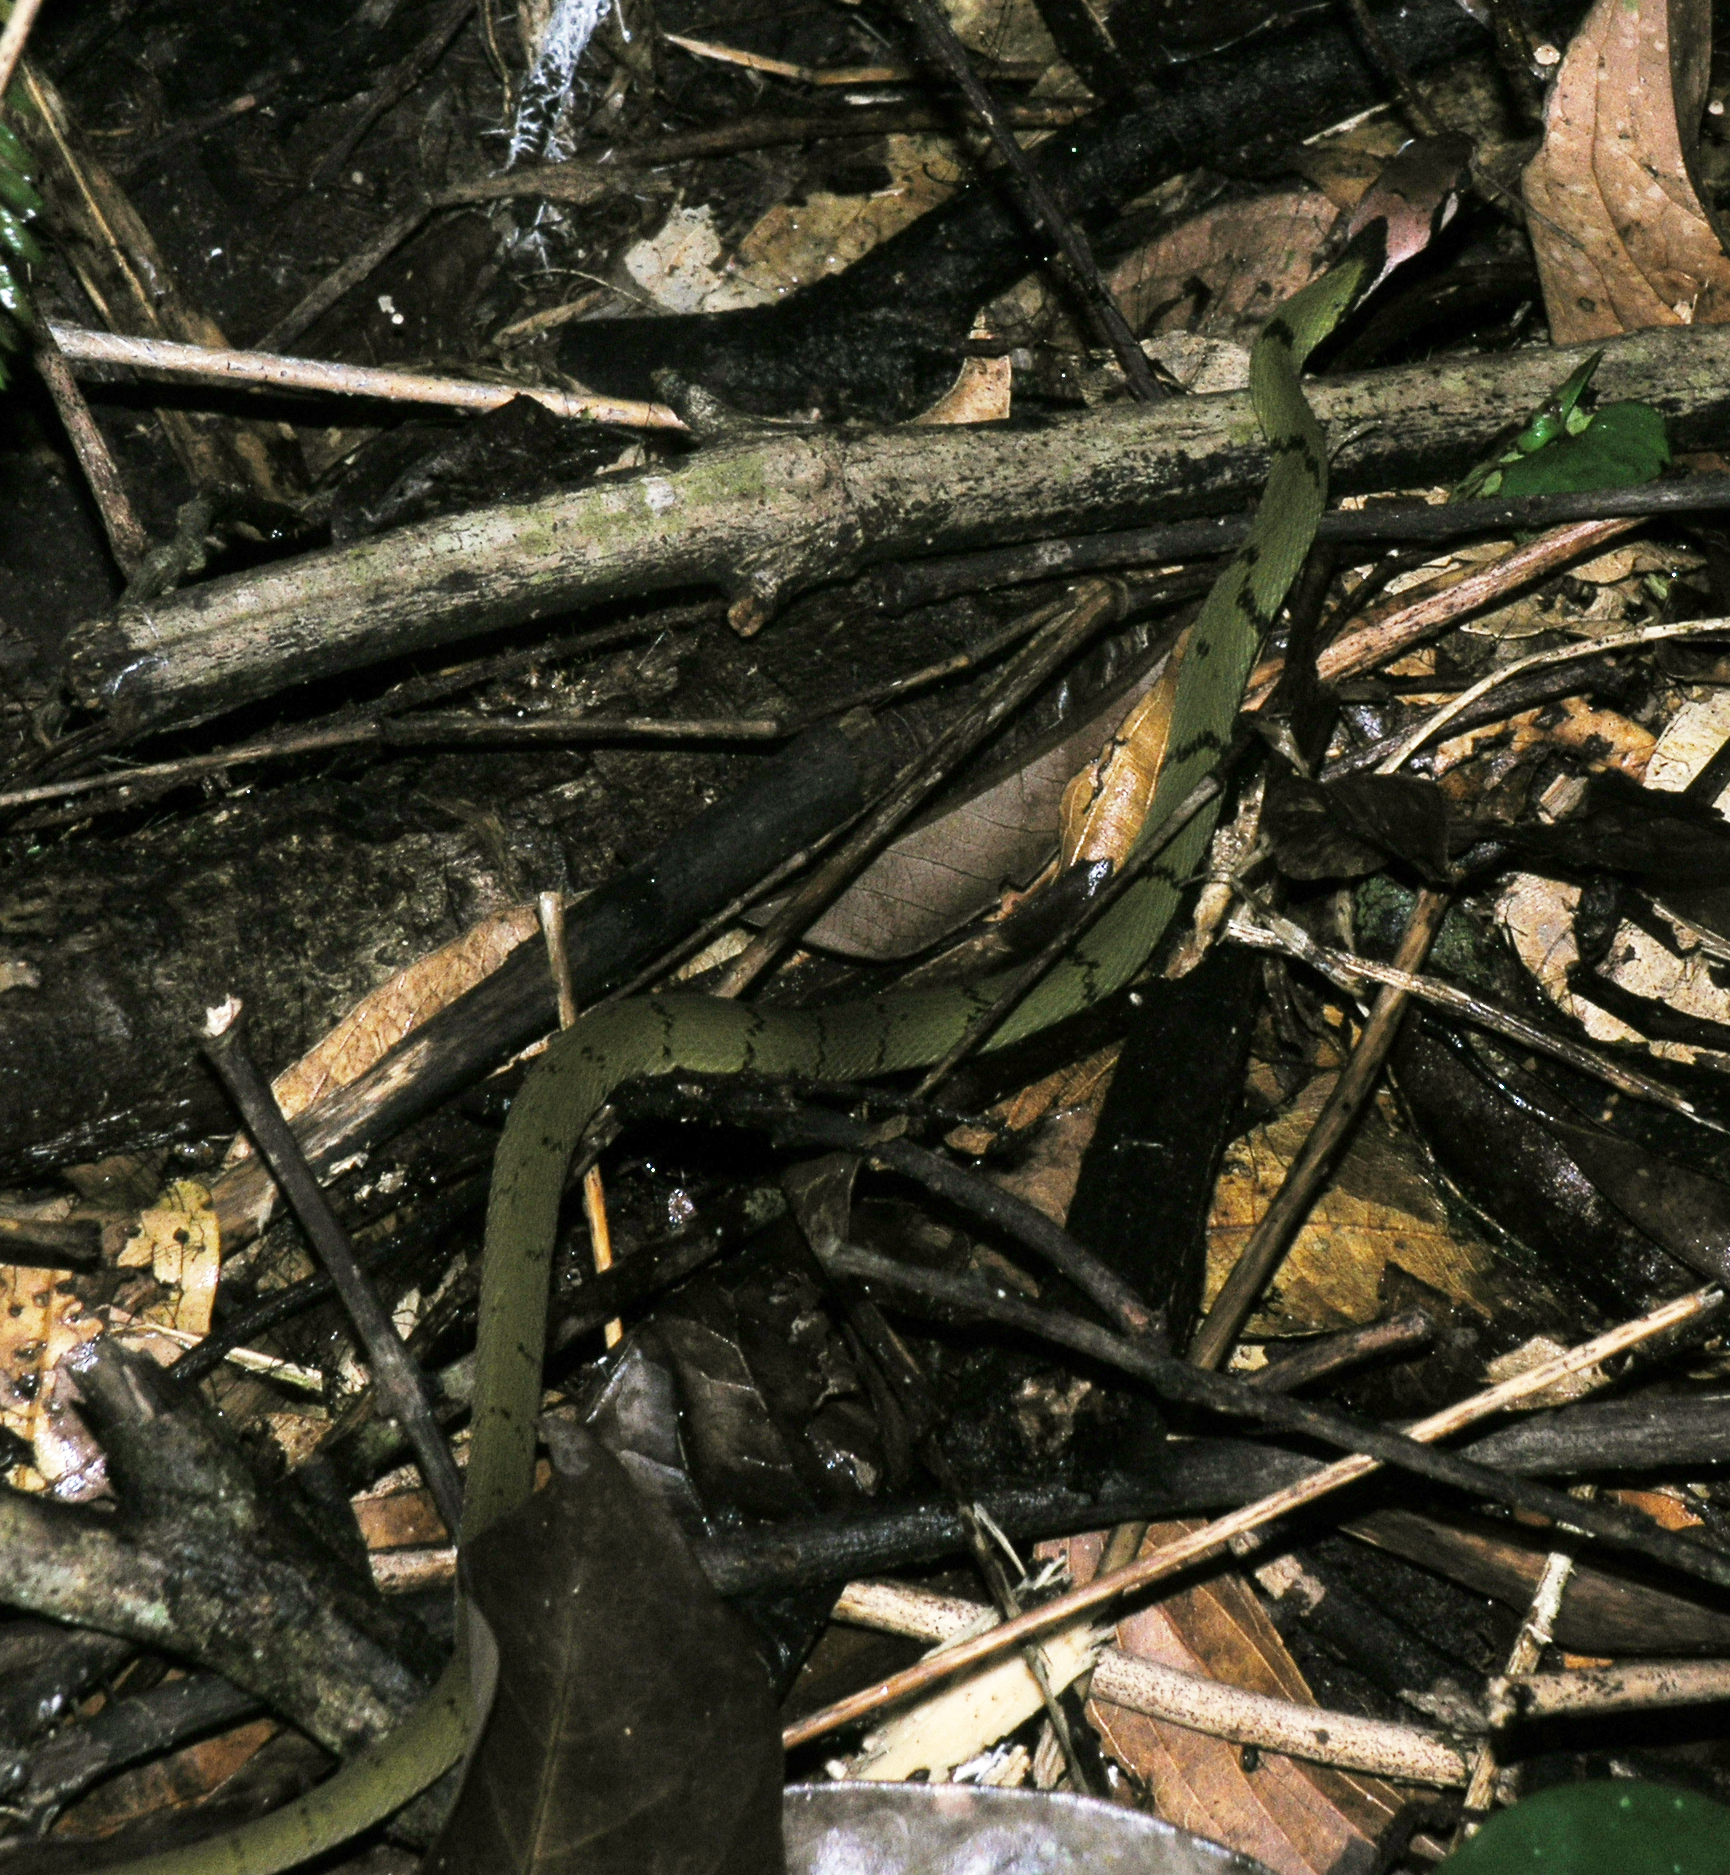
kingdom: Animalia
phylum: Chordata
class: Squamata
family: Colubridae
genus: Rhabdophis
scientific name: Rhabdophis nigrocinctus
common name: Green keelback
